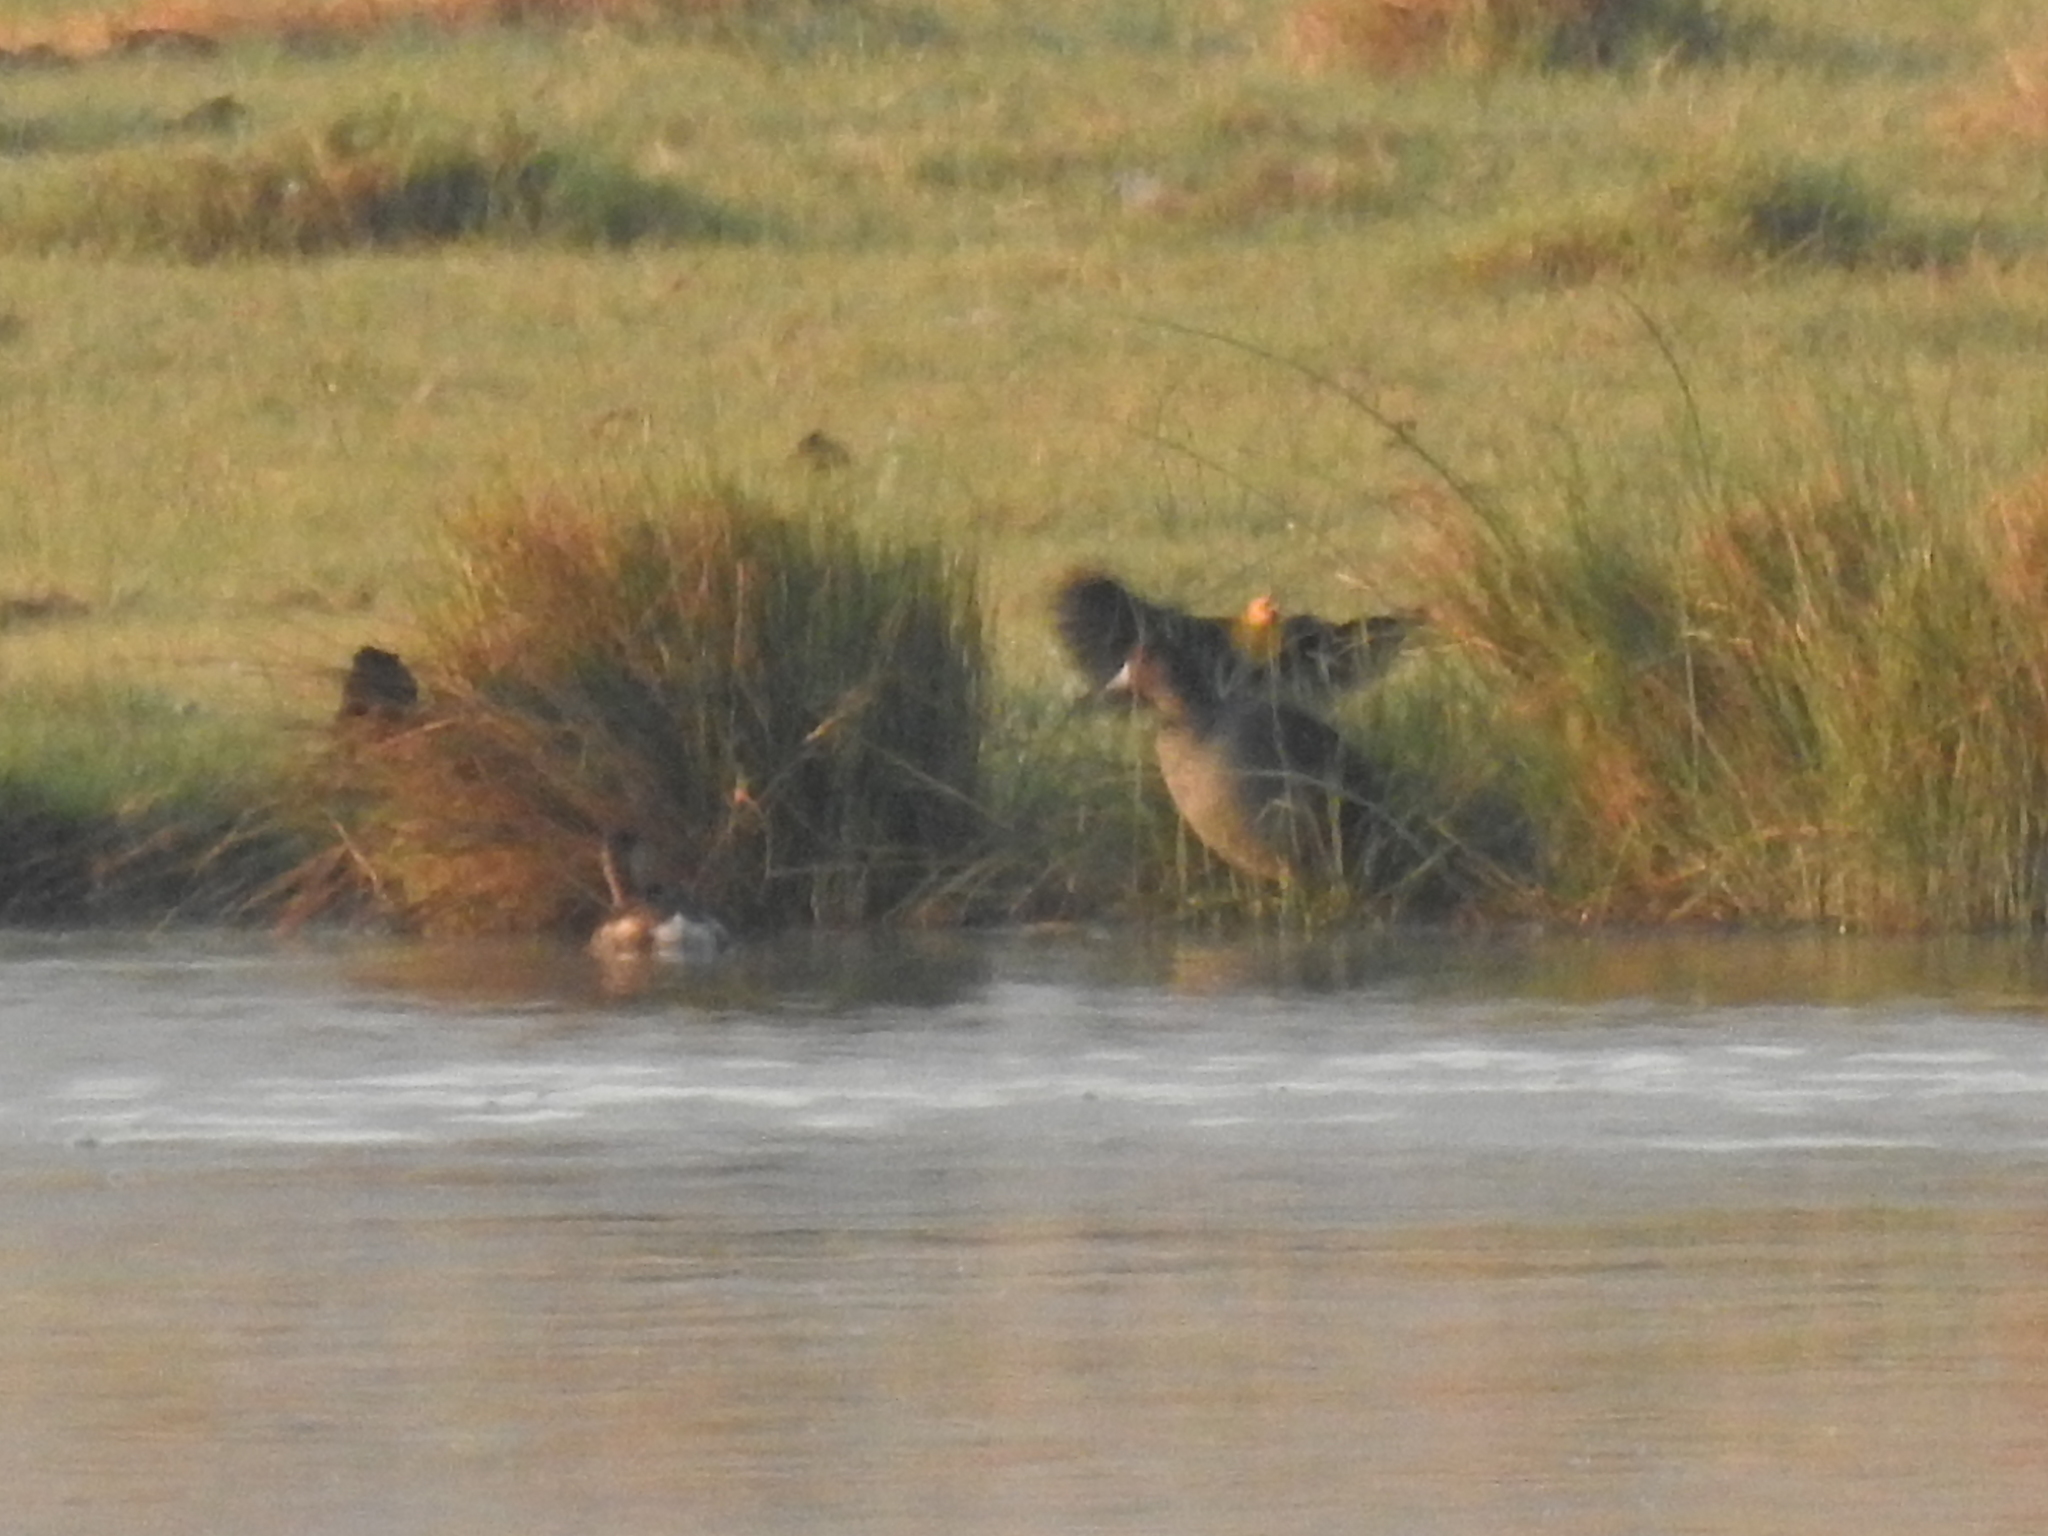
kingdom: Animalia
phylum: Chordata
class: Aves
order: Passeriformes
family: Icteridae
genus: Xanthocephalus
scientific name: Xanthocephalus xanthocephalus
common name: Yellow-headed blackbird
